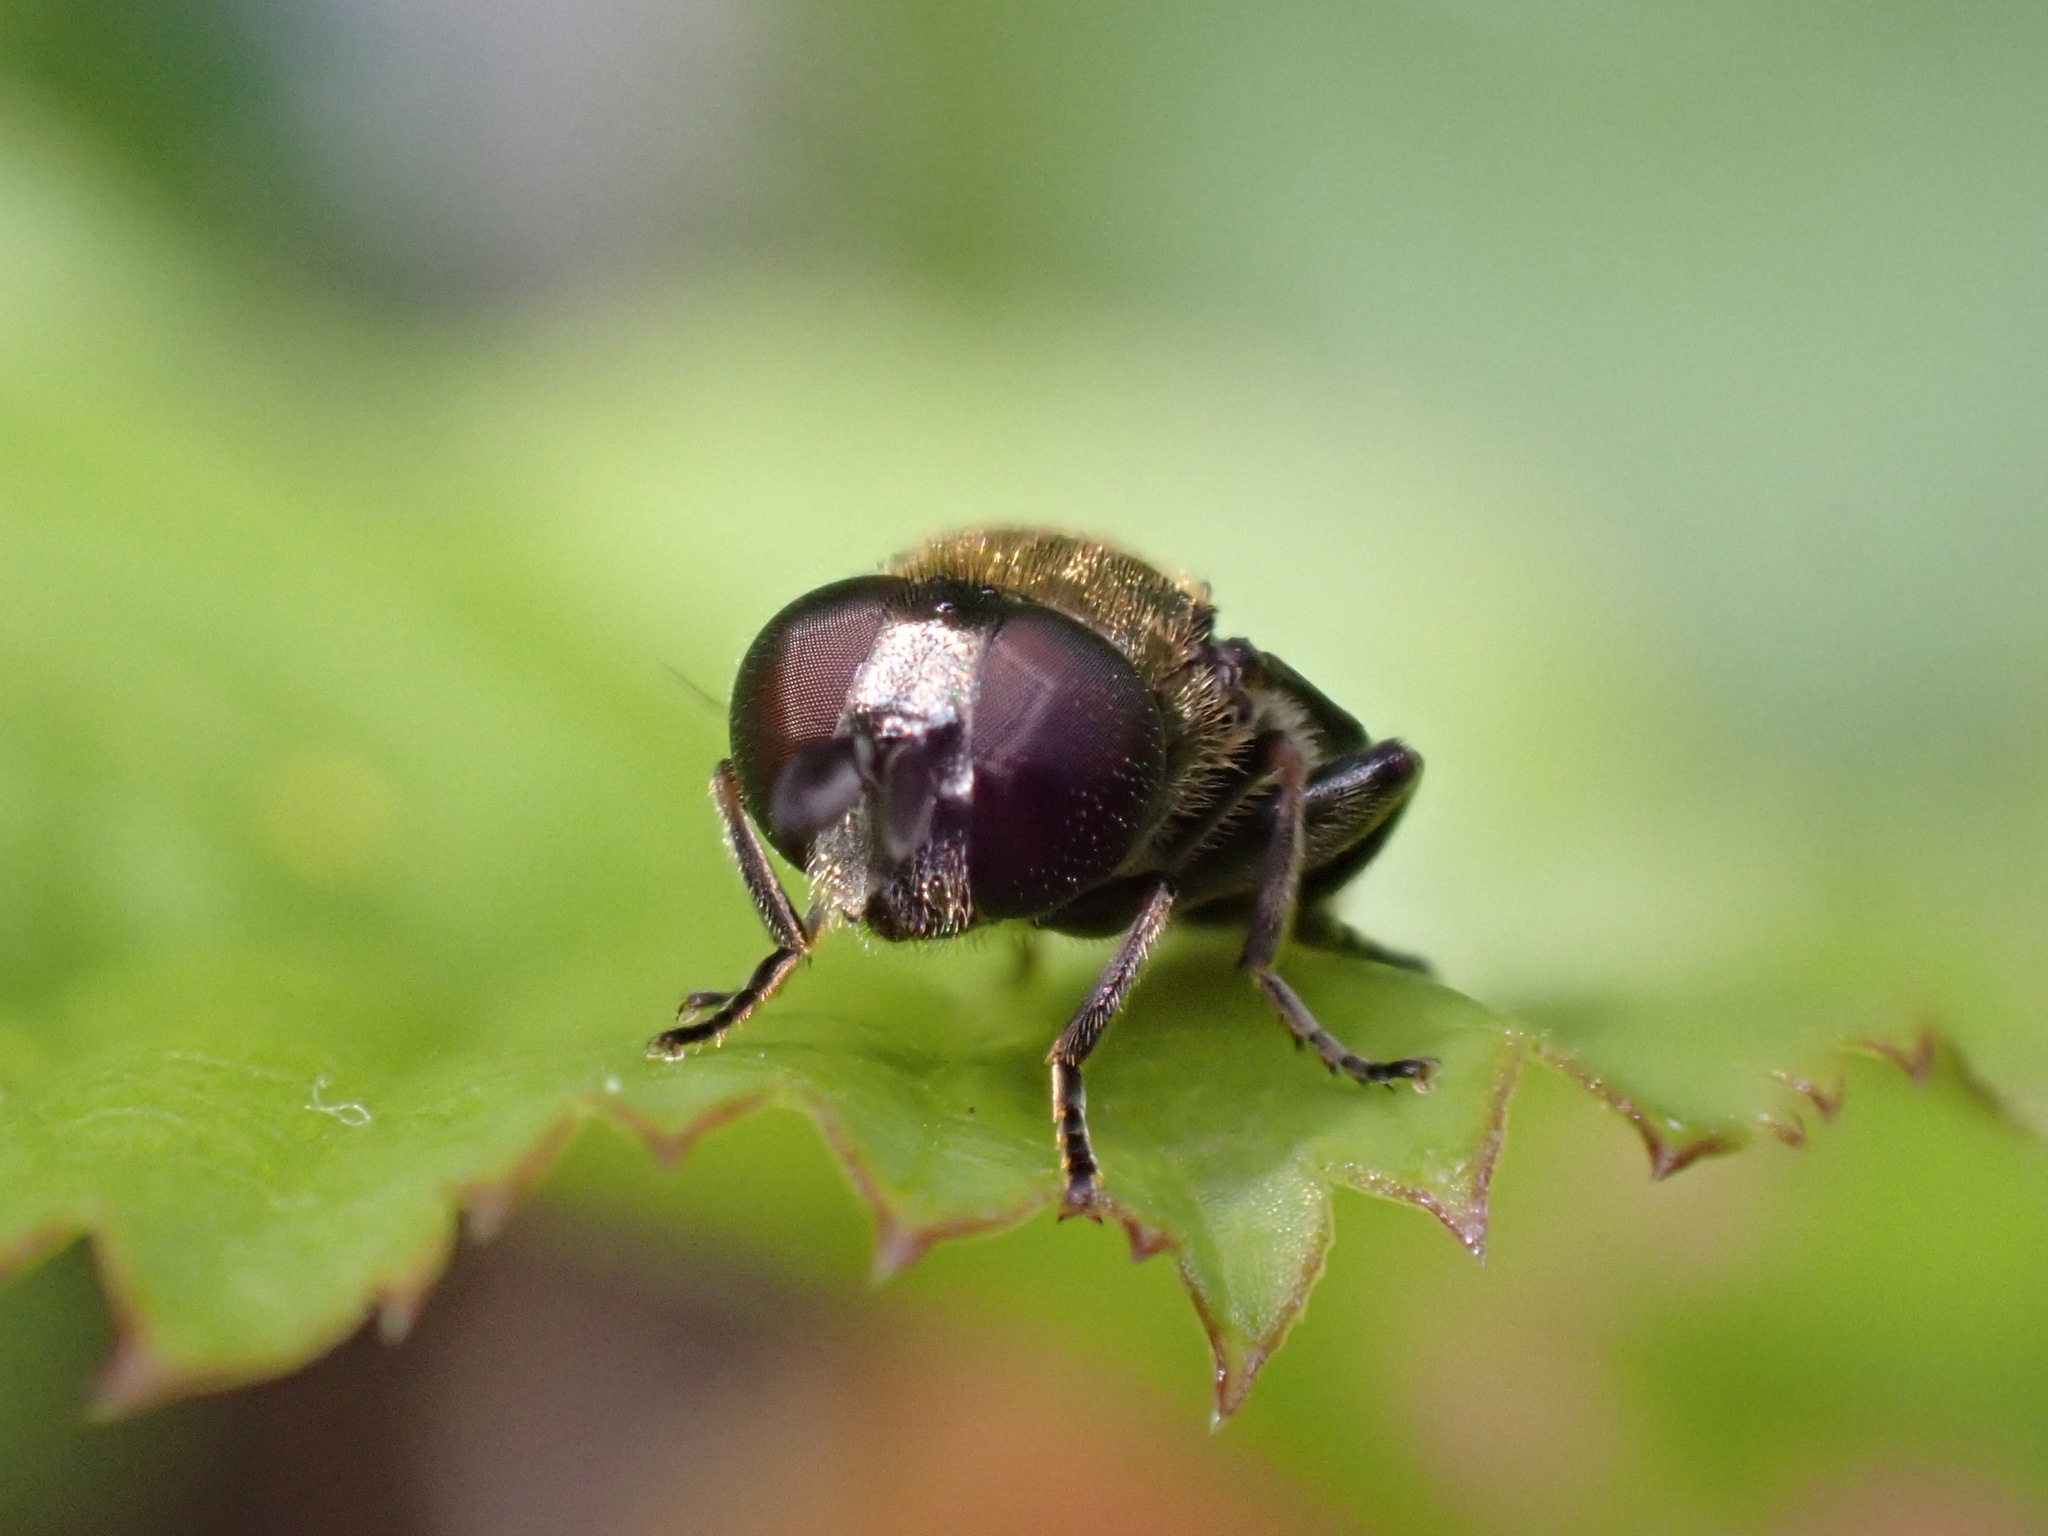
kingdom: Animalia
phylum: Arthropoda
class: Insecta
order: Diptera
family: Syrphidae
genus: Eumerus
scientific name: Eumerus
